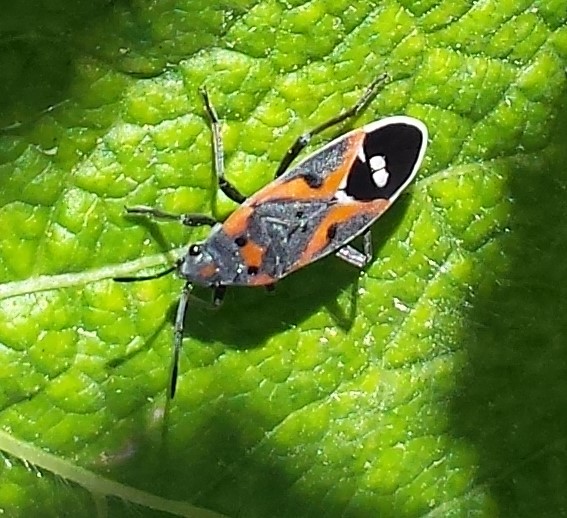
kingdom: Animalia
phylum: Arthropoda
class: Insecta
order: Hemiptera
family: Lygaeidae
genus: Lygaeus
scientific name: Lygaeus kalmii
